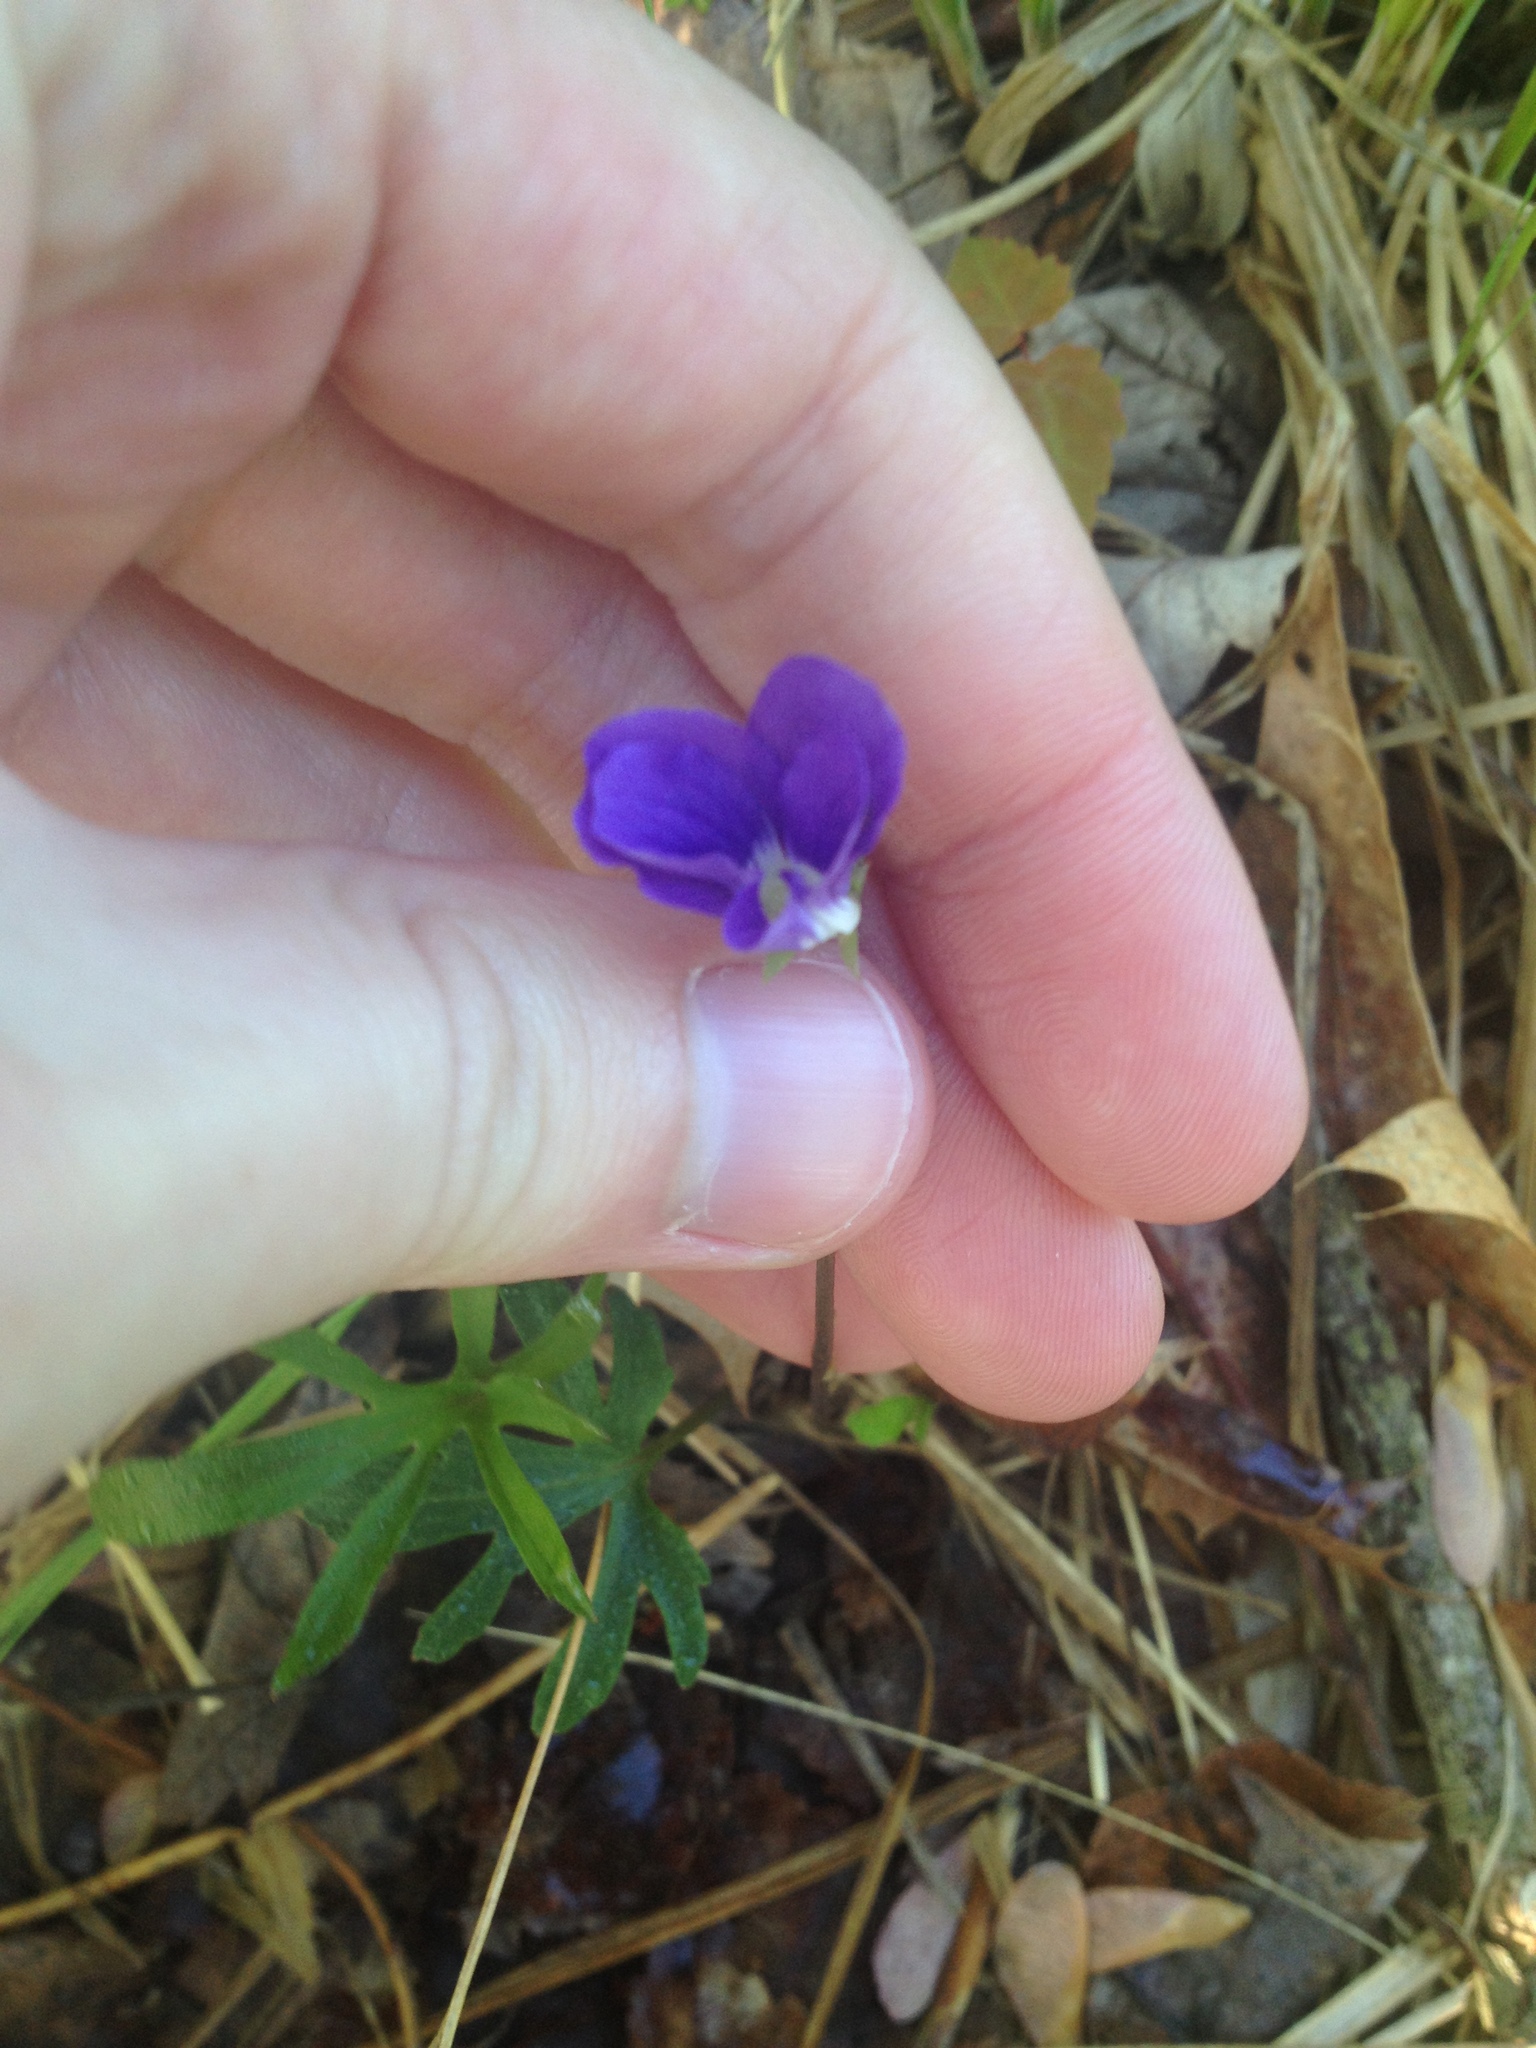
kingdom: Plantae
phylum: Tracheophyta
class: Magnoliopsida
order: Malpighiales
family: Violaceae
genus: Viola
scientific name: Viola brittoniana
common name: Northern coastal violet
